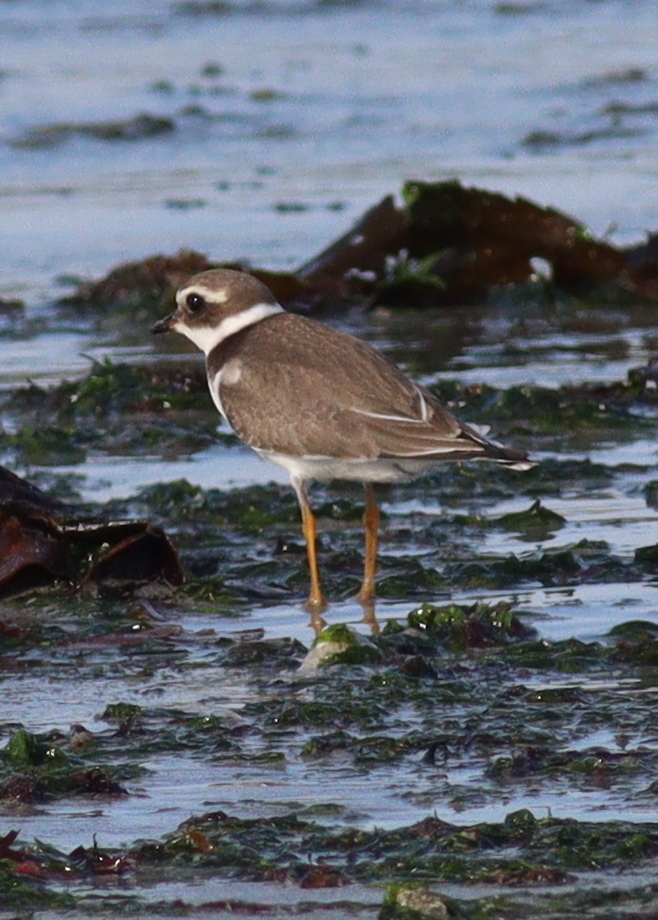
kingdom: Animalia
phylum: Chordata
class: Aves
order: Charadriiformes
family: Charadriidae
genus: Charadrius
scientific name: Charadrius hiaticula
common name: Common ringed plover
